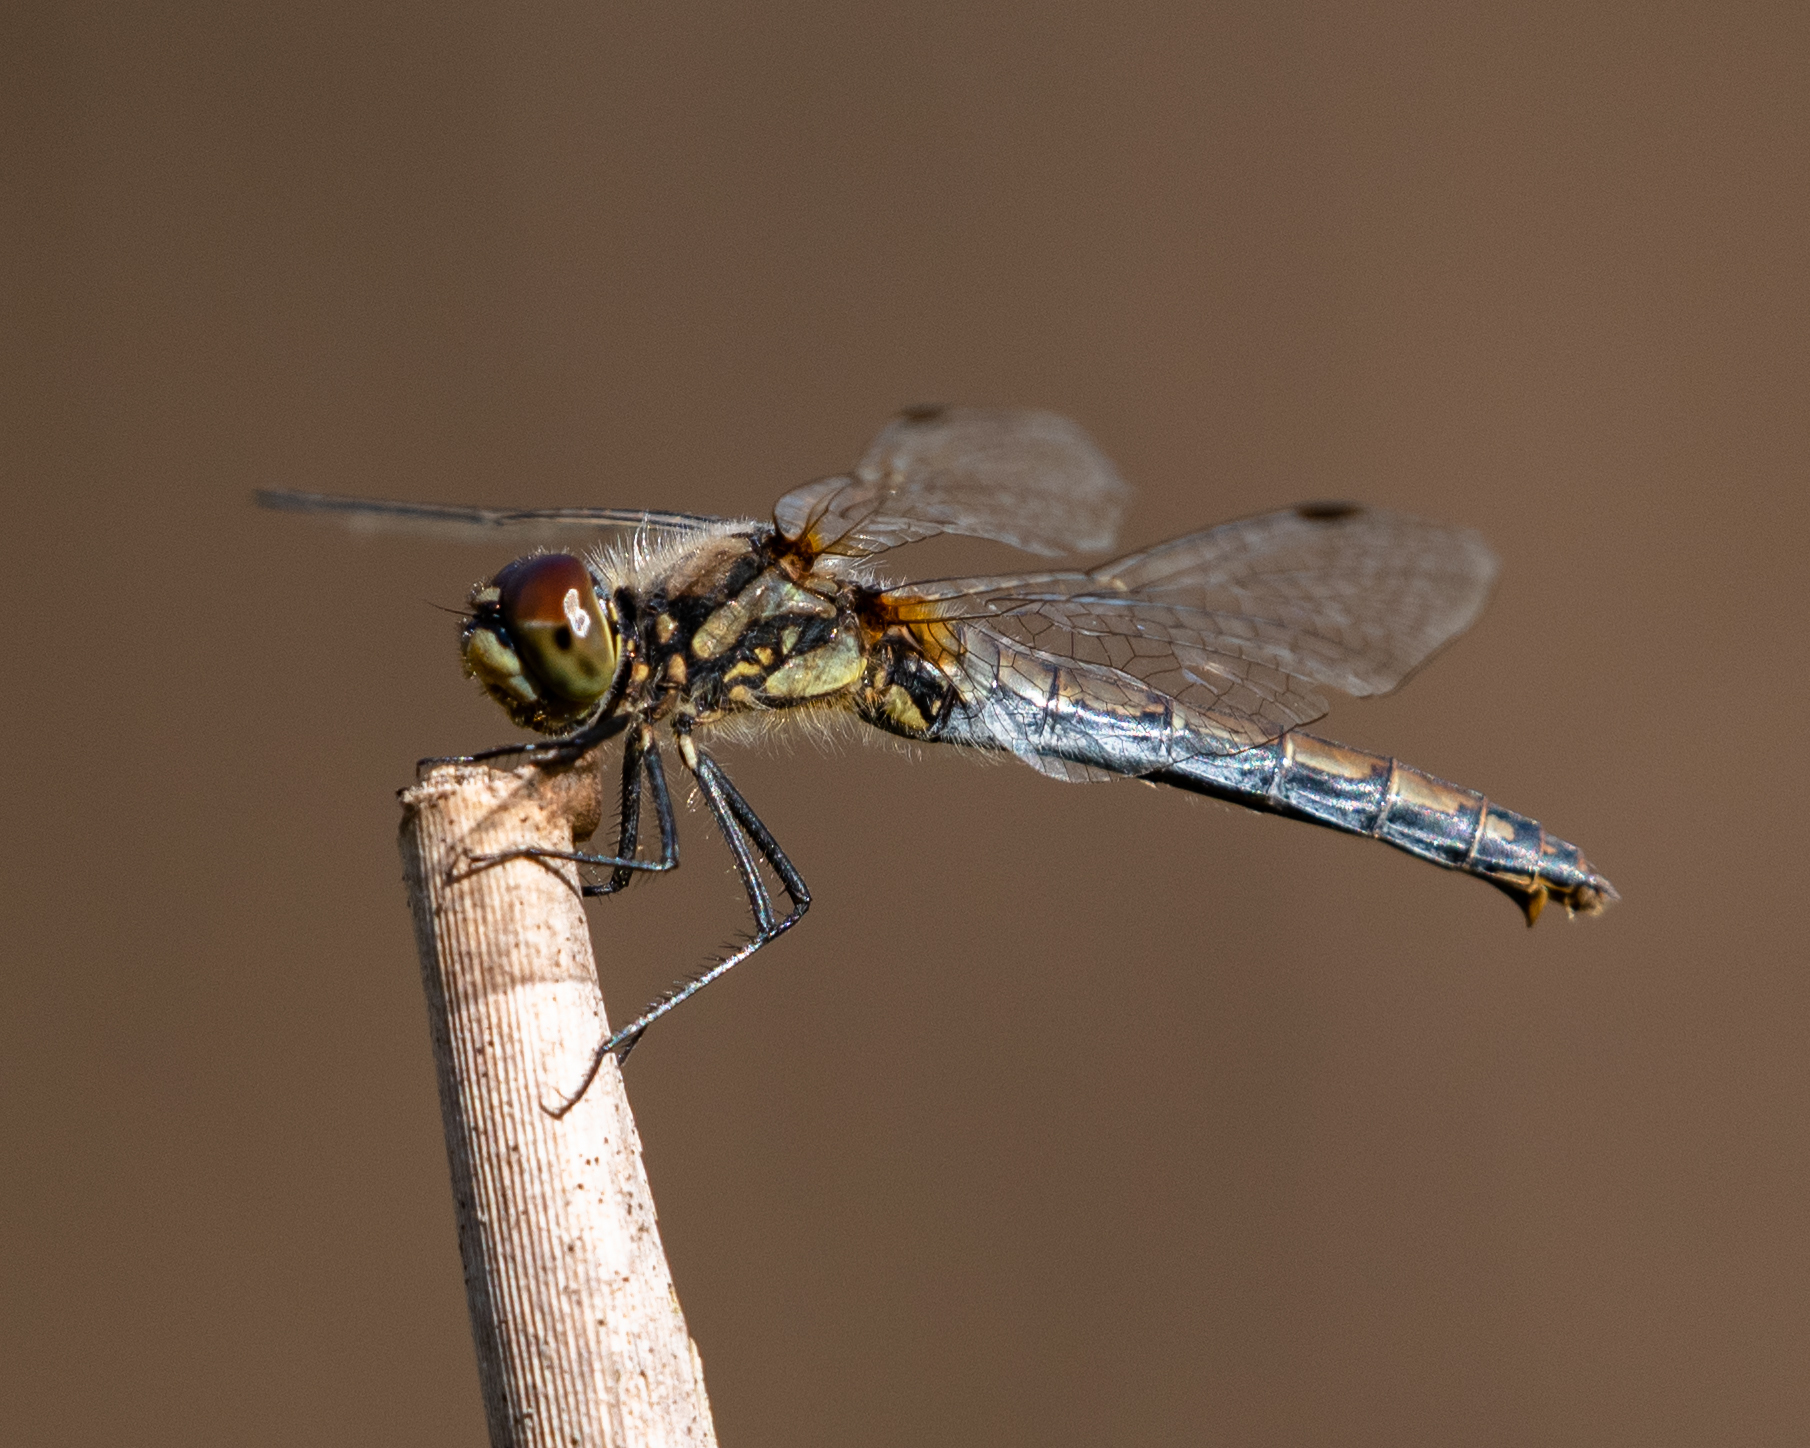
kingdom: Animalia
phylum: Arthropoda
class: Insecta
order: Odonata
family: Libellulidae
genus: Sympetrum
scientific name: Sympetrum danae
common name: Black darter
